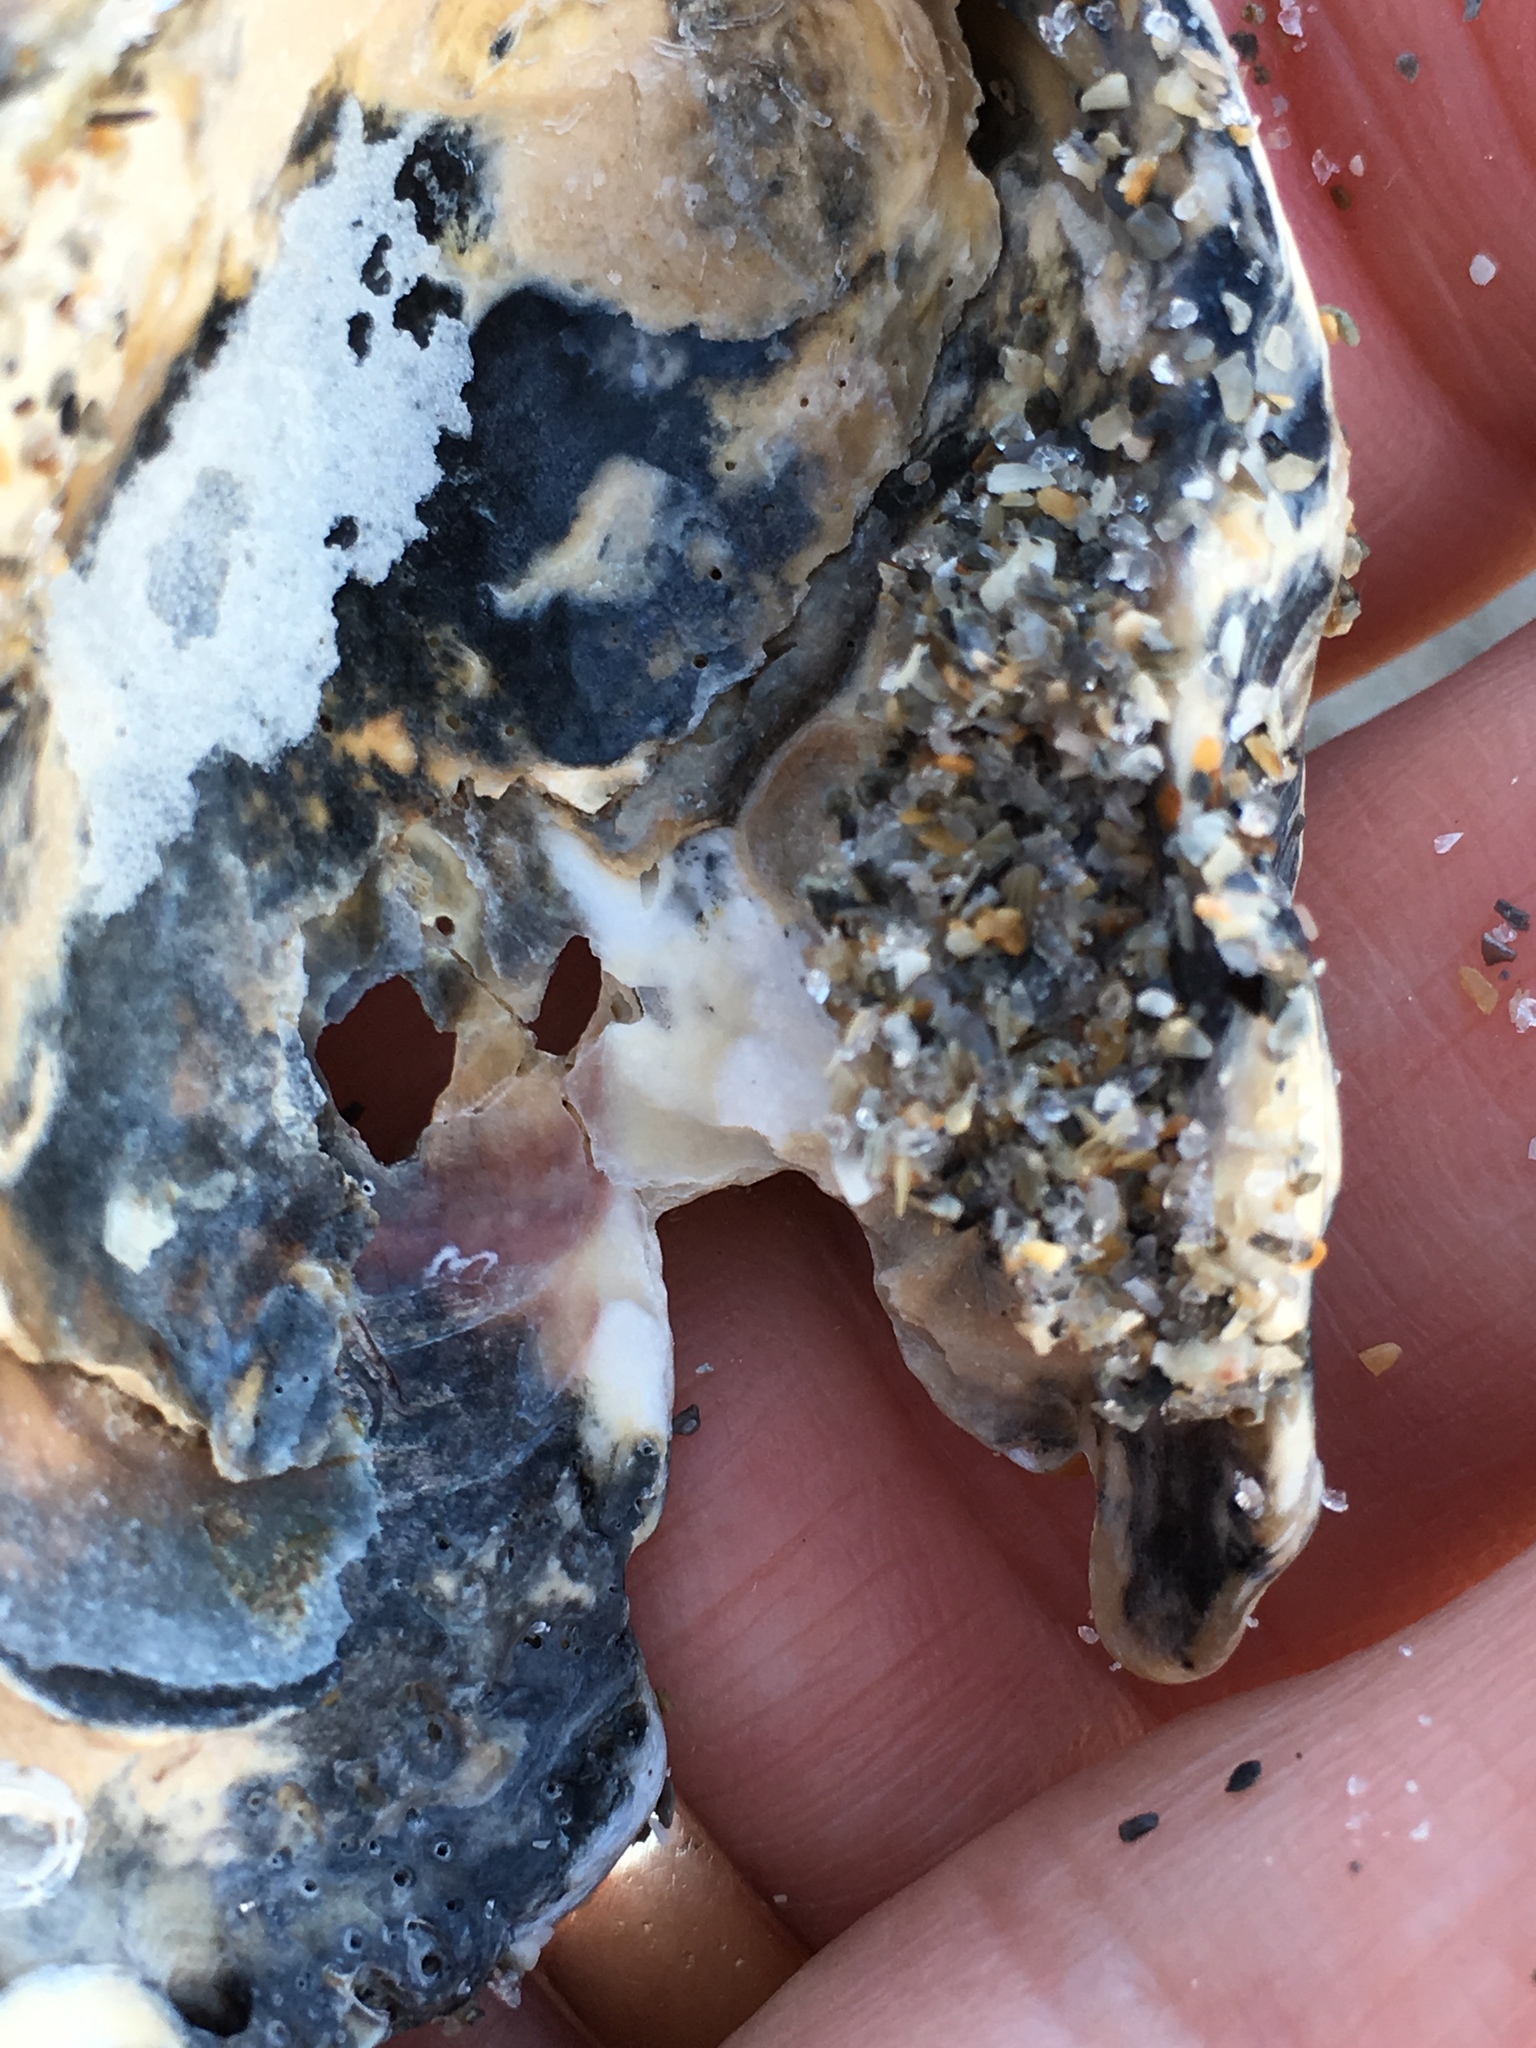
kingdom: Animalia
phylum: Mollusca
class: Bivalvia
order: Ostreida
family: Ostreidae
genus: Crassostrea
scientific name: Crassostrea virginica
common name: American oyster
